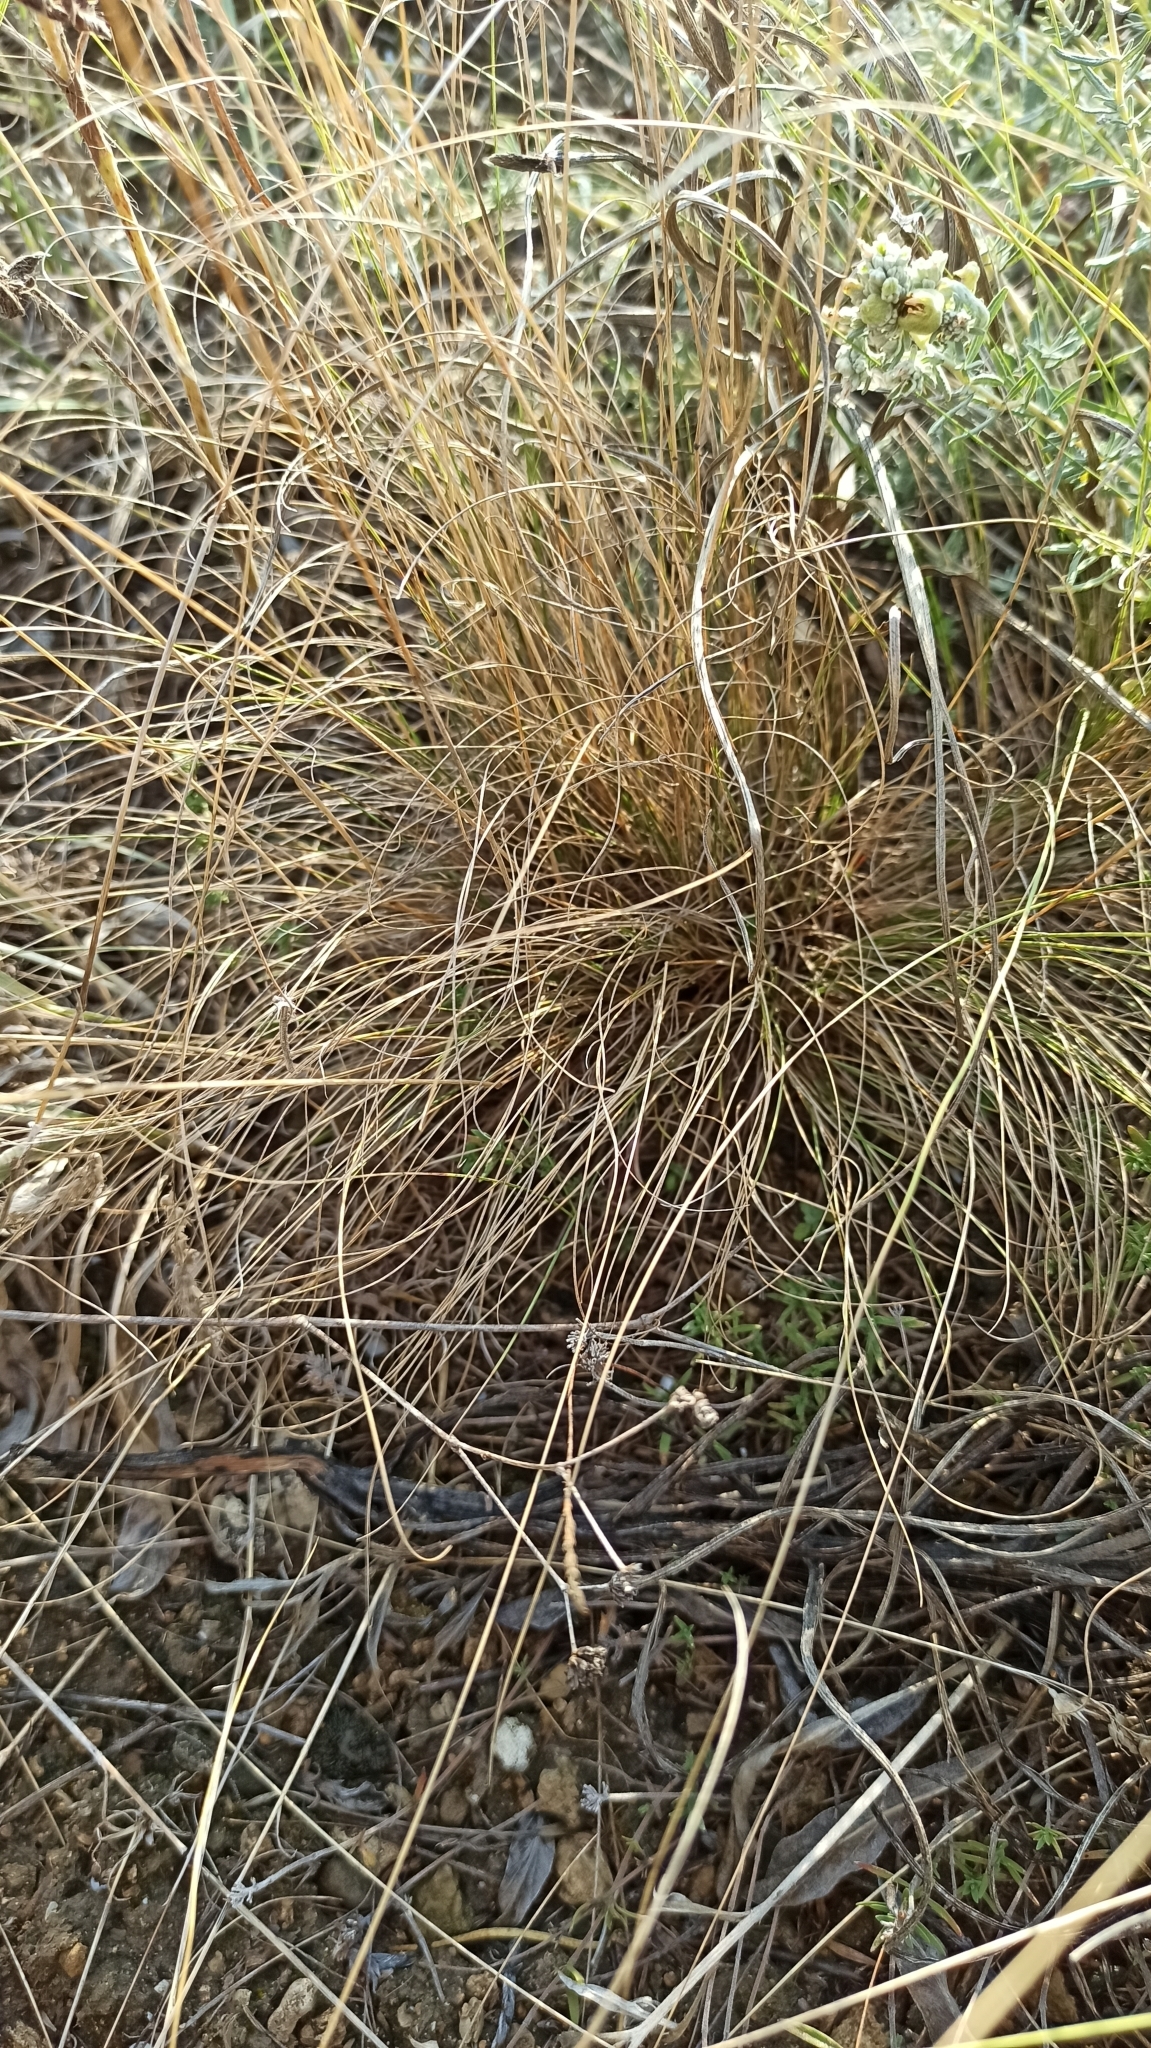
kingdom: Plantae
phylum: Tracheophyta
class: Liliopsida
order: Poales
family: Poaceae
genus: Festuca
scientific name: Festuca valesiaca
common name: Volga fescue
